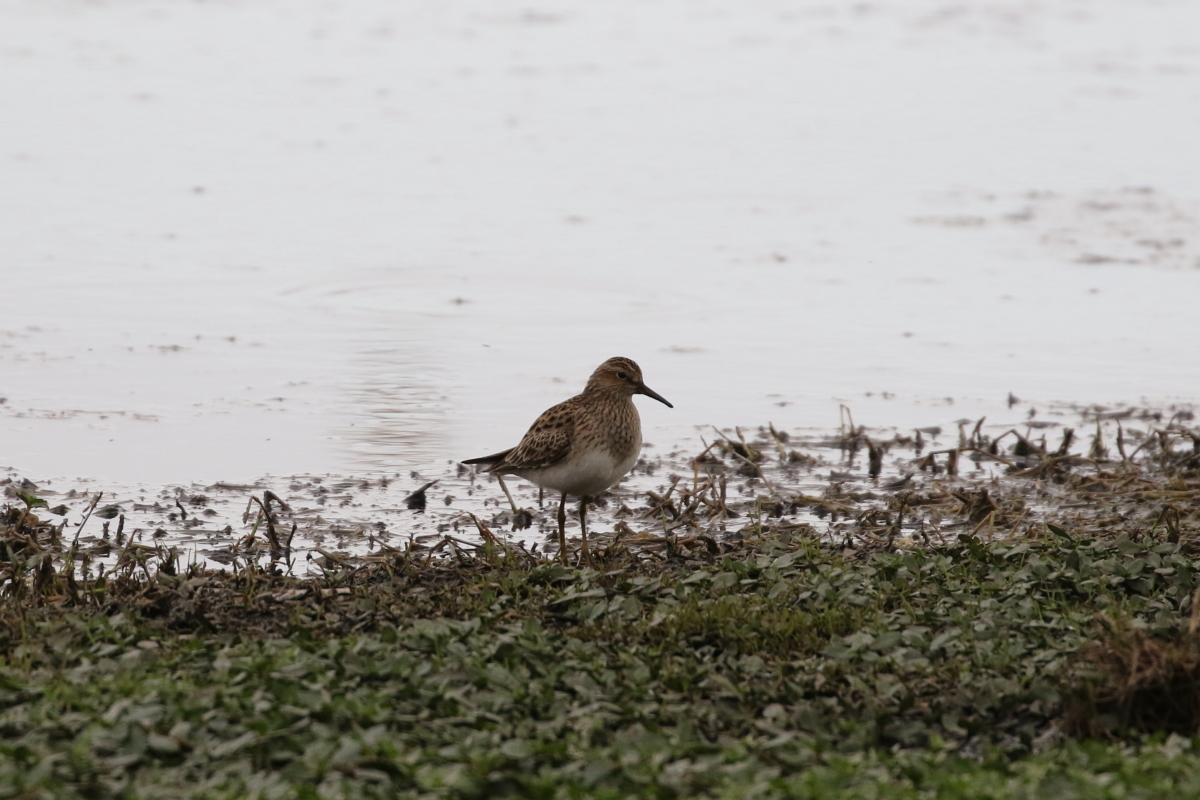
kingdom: Animalia
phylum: Chordata
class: Aves
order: Charadriiformes
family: Scolopacidae
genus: Calidris
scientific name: Calidris melanotos
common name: Pectoral sandpiper
